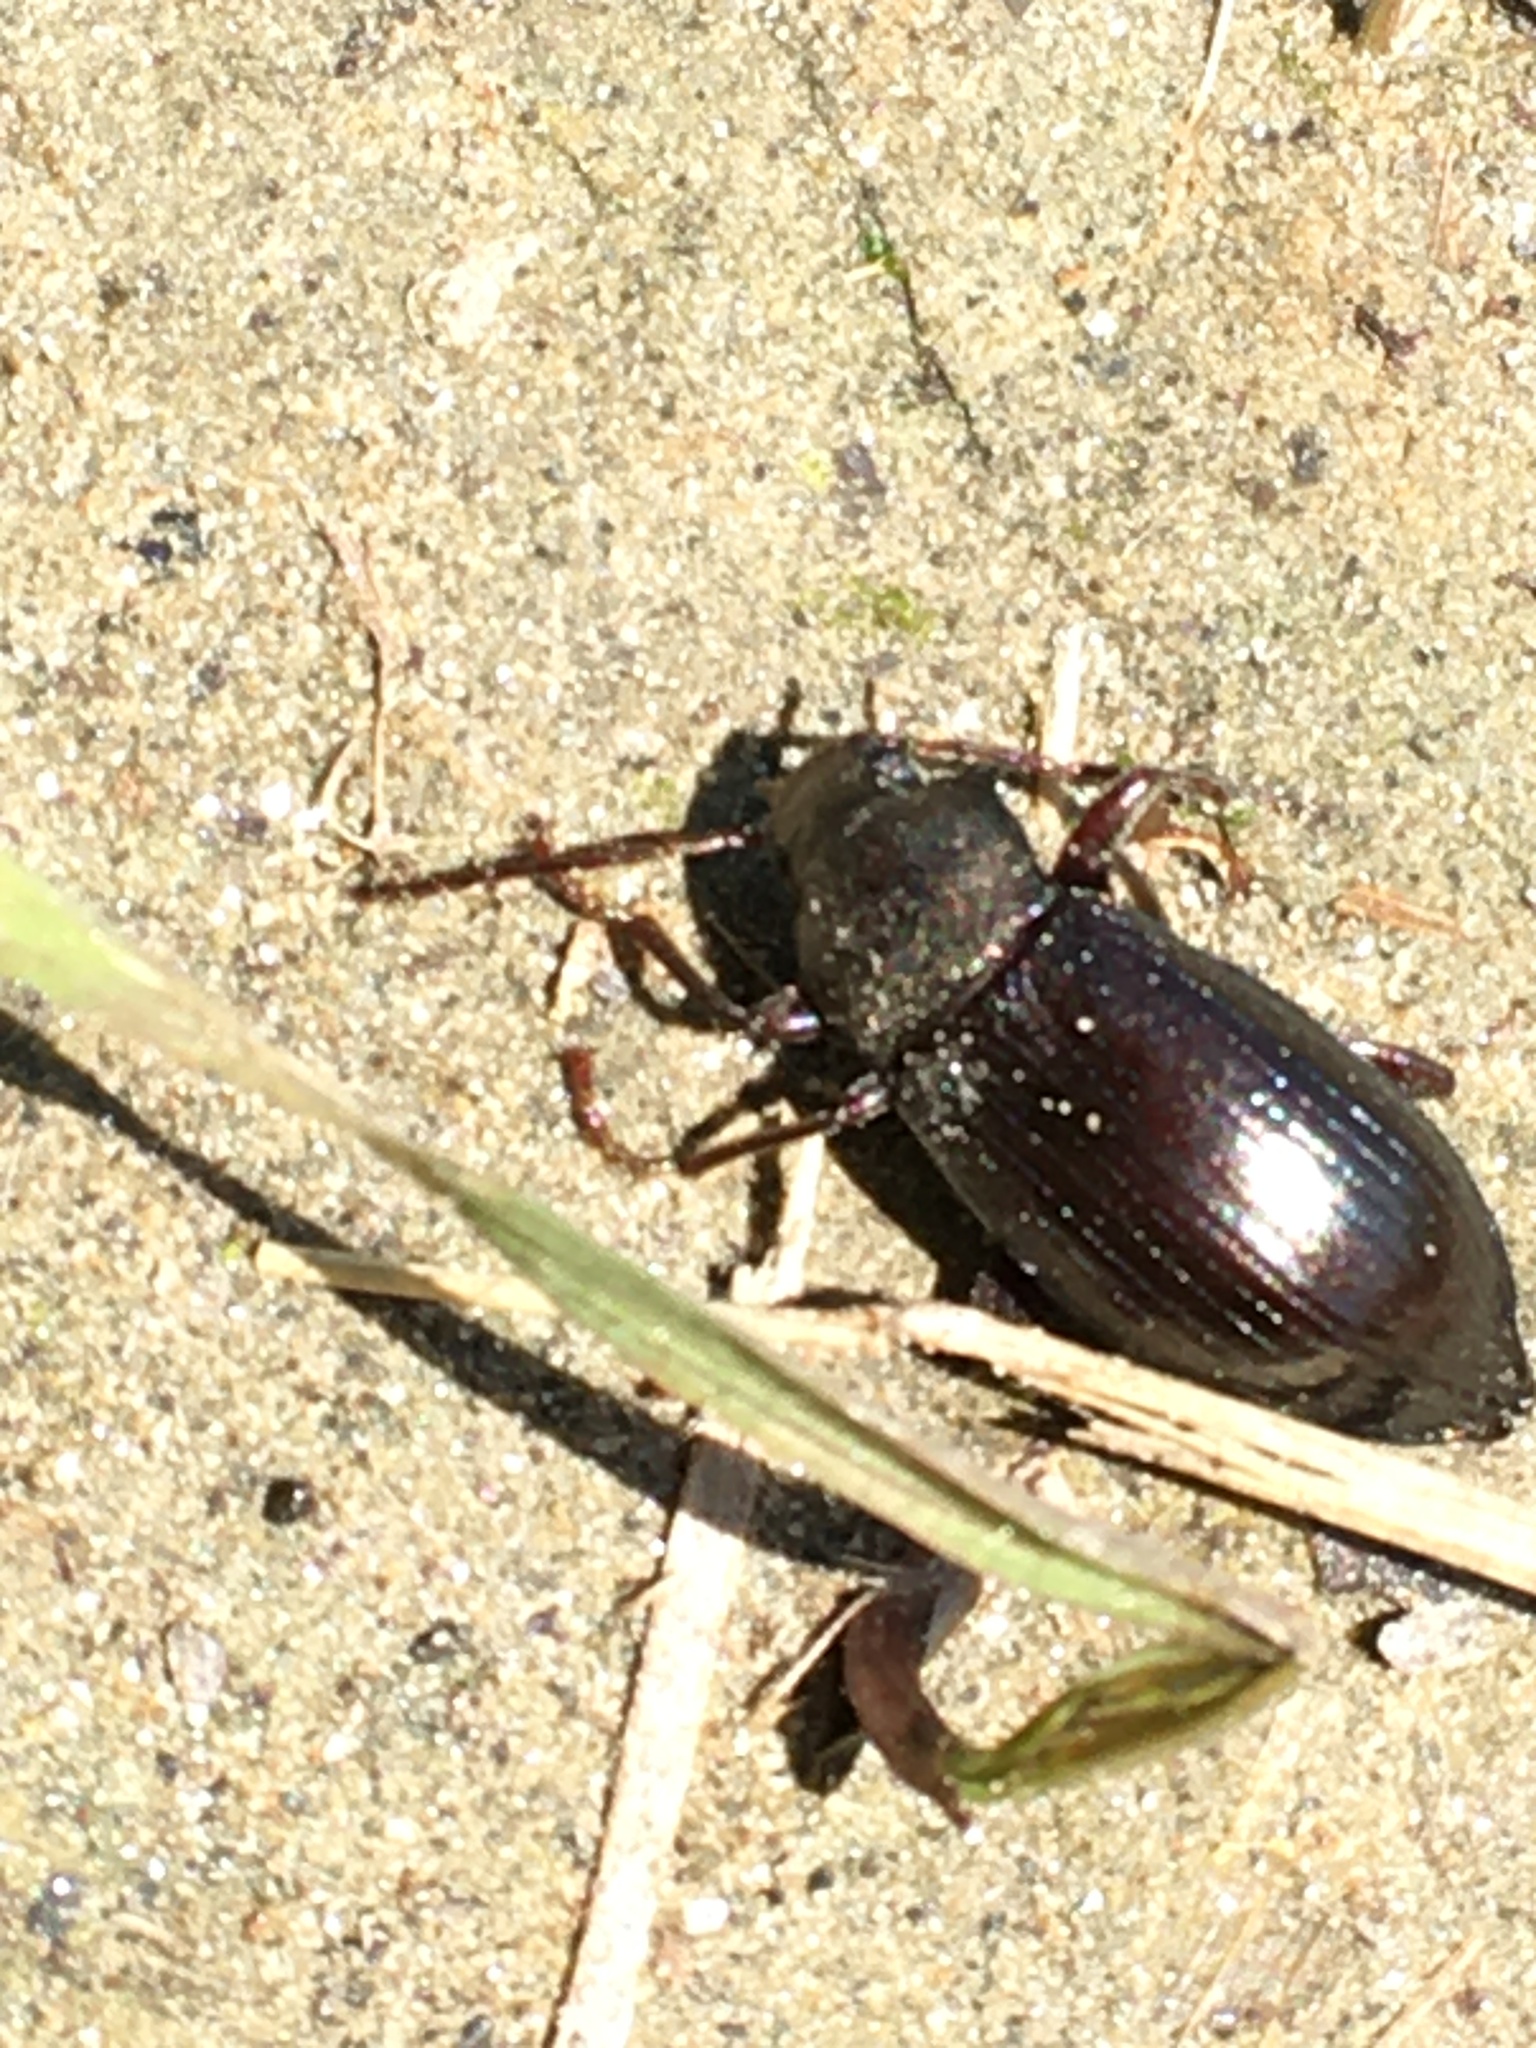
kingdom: Animalia
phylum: Arthropoda
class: Insecta
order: Coleoptera
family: Tenebrionidae
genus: Stenomax
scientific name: Stenomax aeneus
